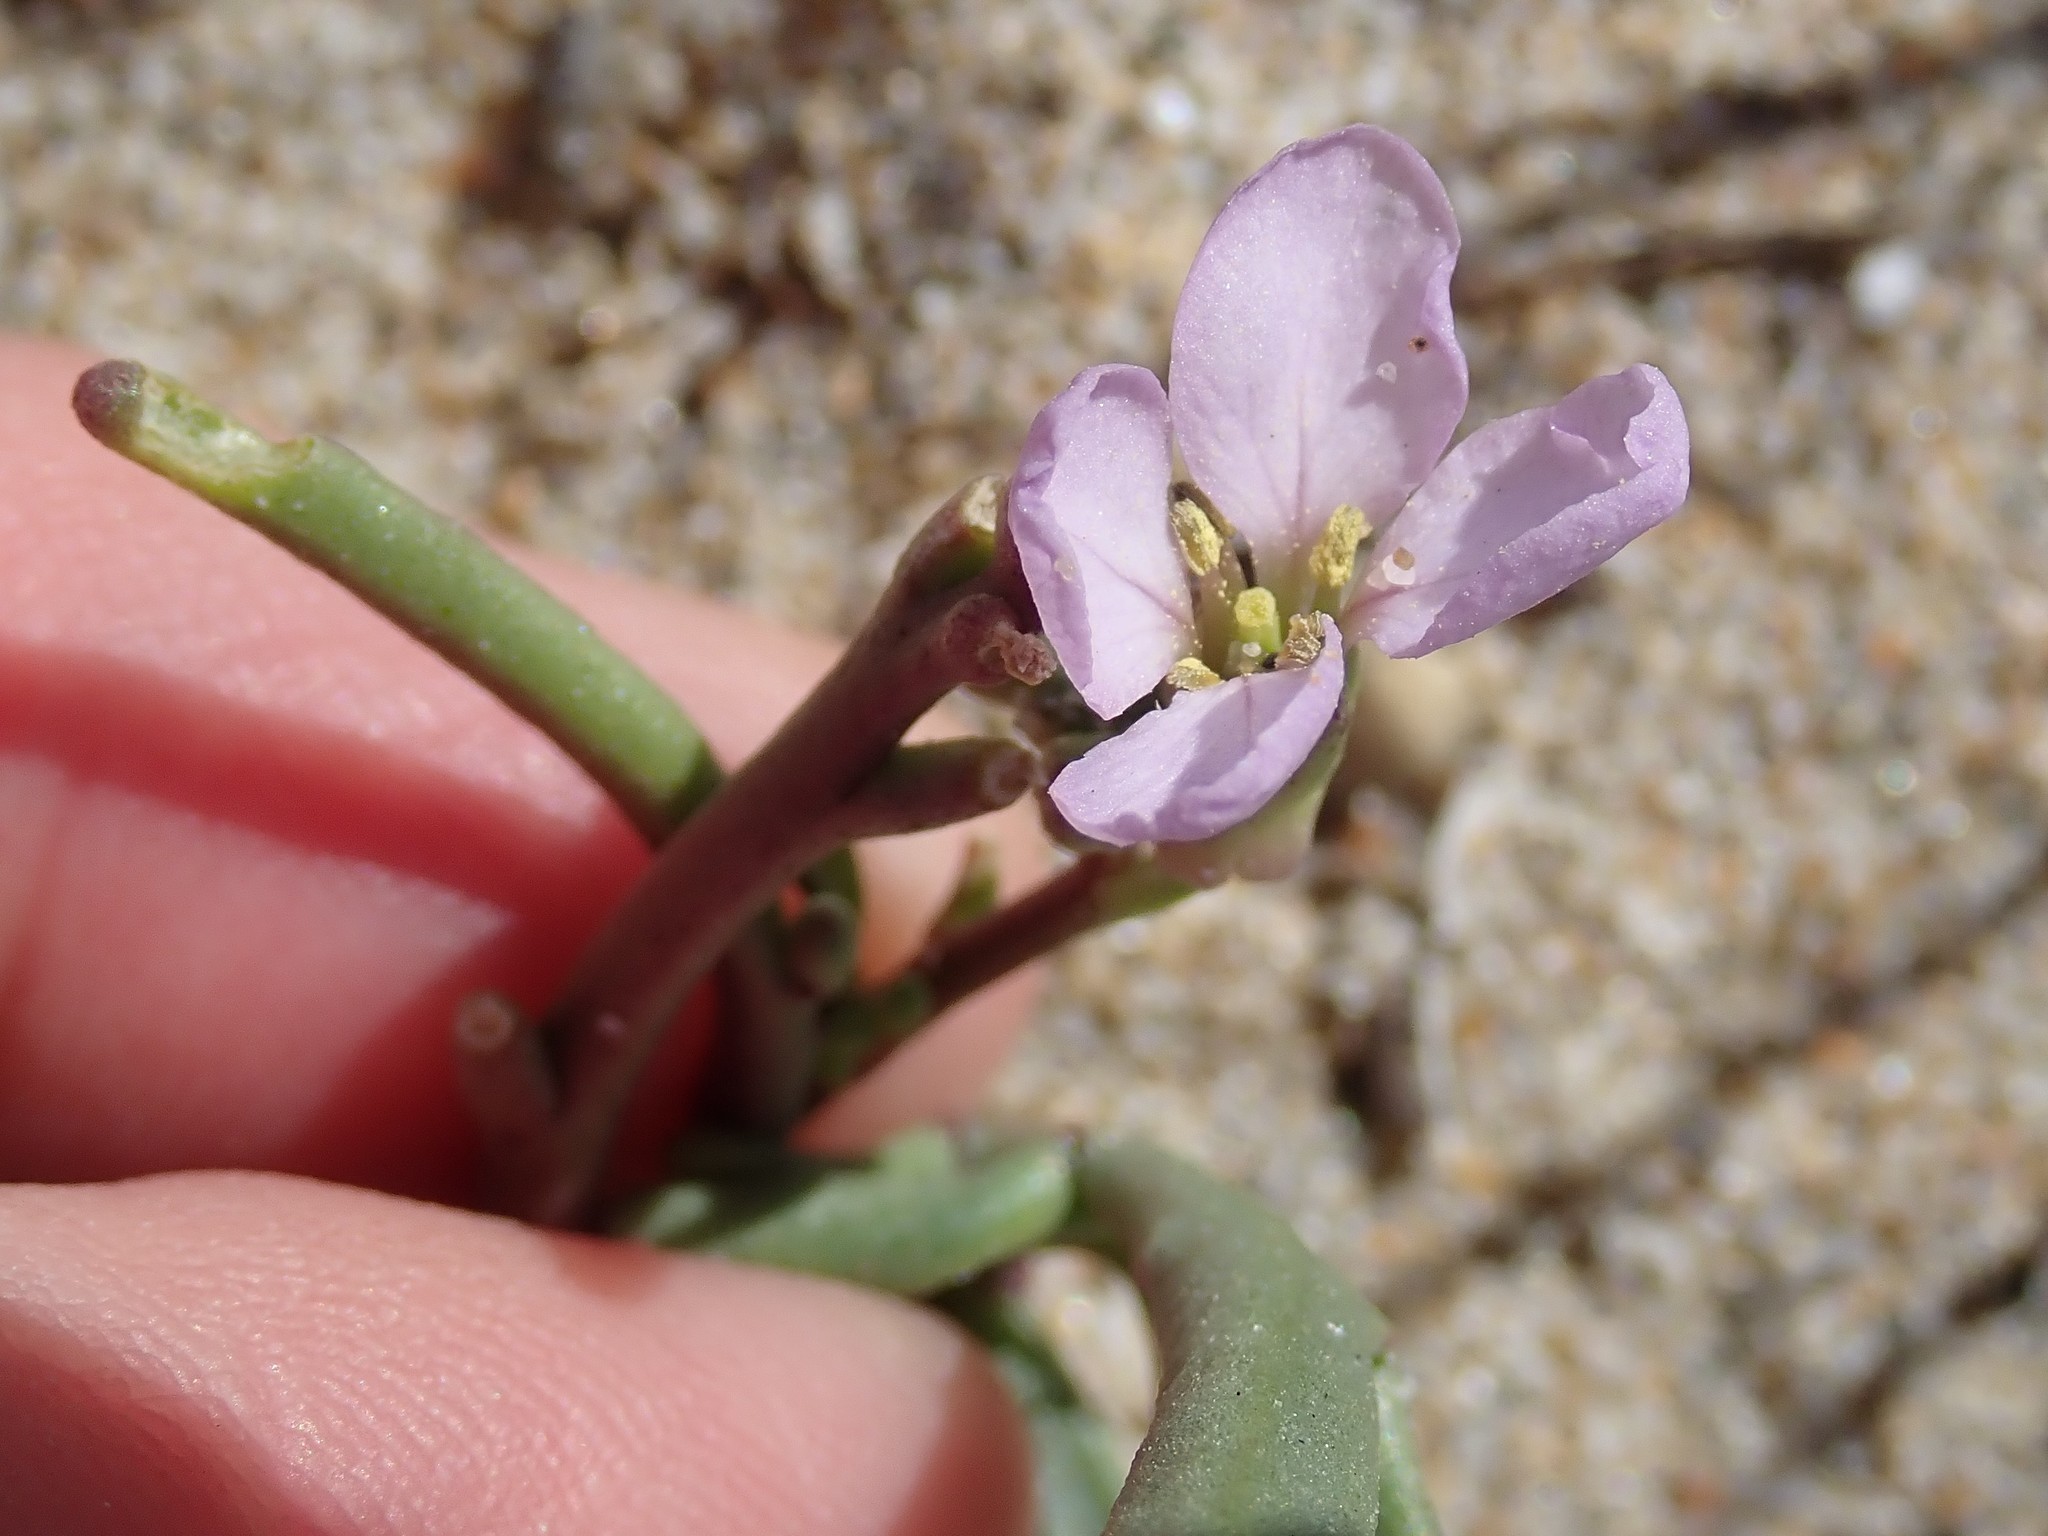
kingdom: Plantae
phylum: Tracheophyta
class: Magnoliopsida
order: Brassicales
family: Brassicaceae
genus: Cakile
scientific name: Cakile maritima
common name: Sea rocket
